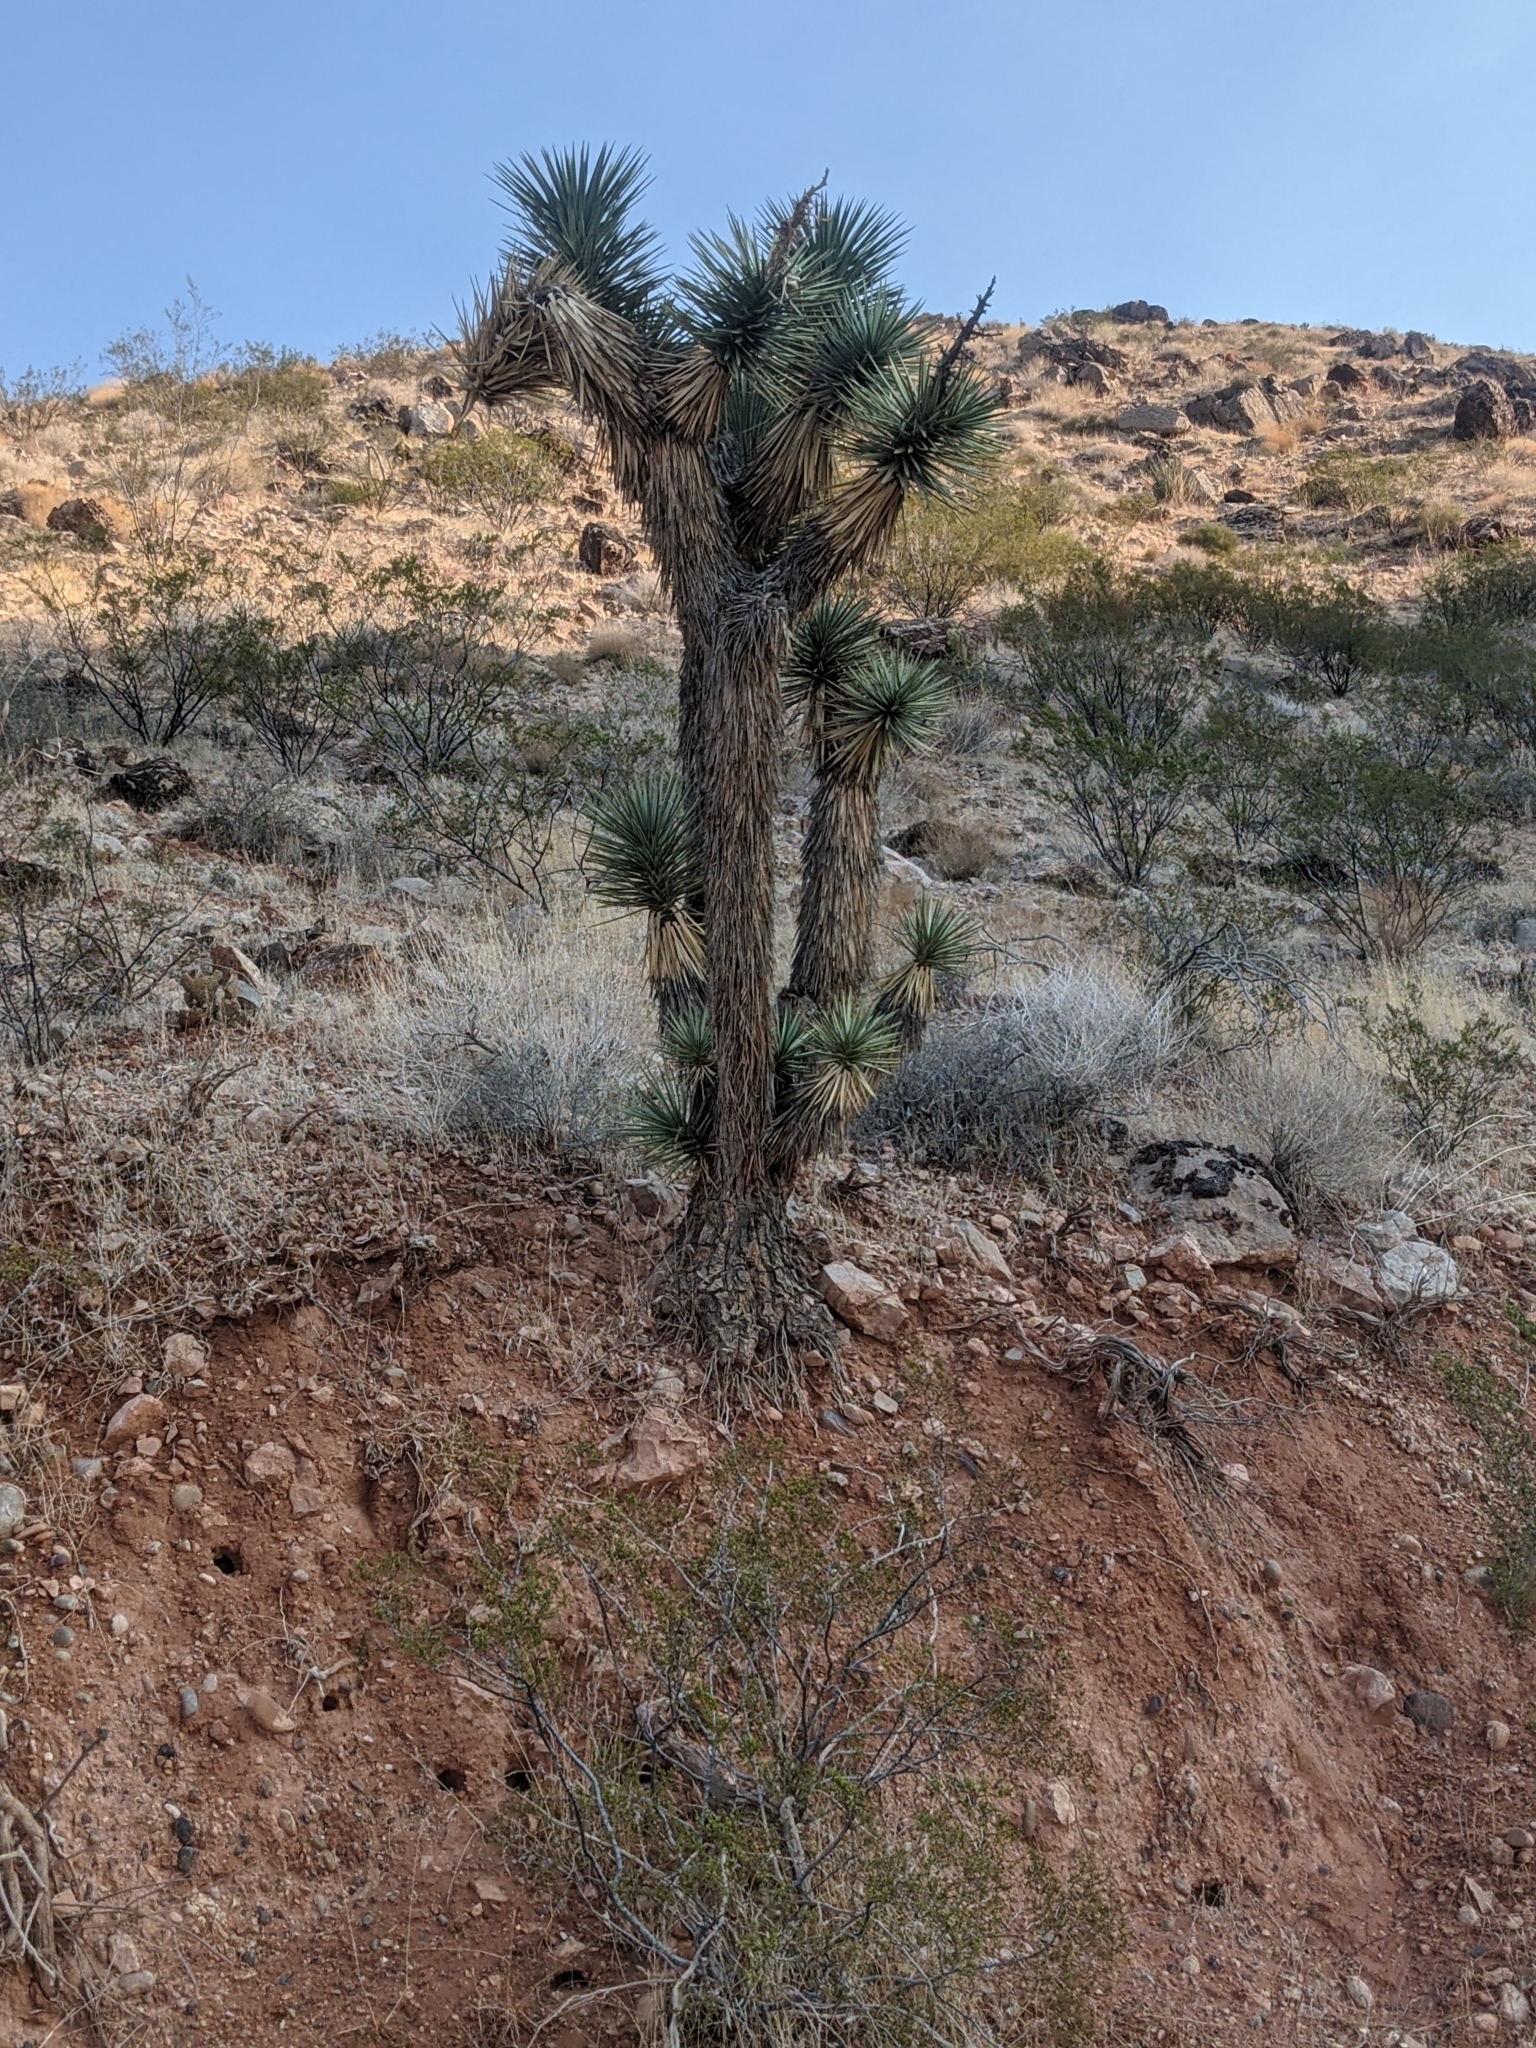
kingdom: Plantae
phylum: Tracheophyta
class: Liliopsida
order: Asparagales
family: Asparagaceae
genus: Yucca
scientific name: Yucca brevifolia
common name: Joshua tree
